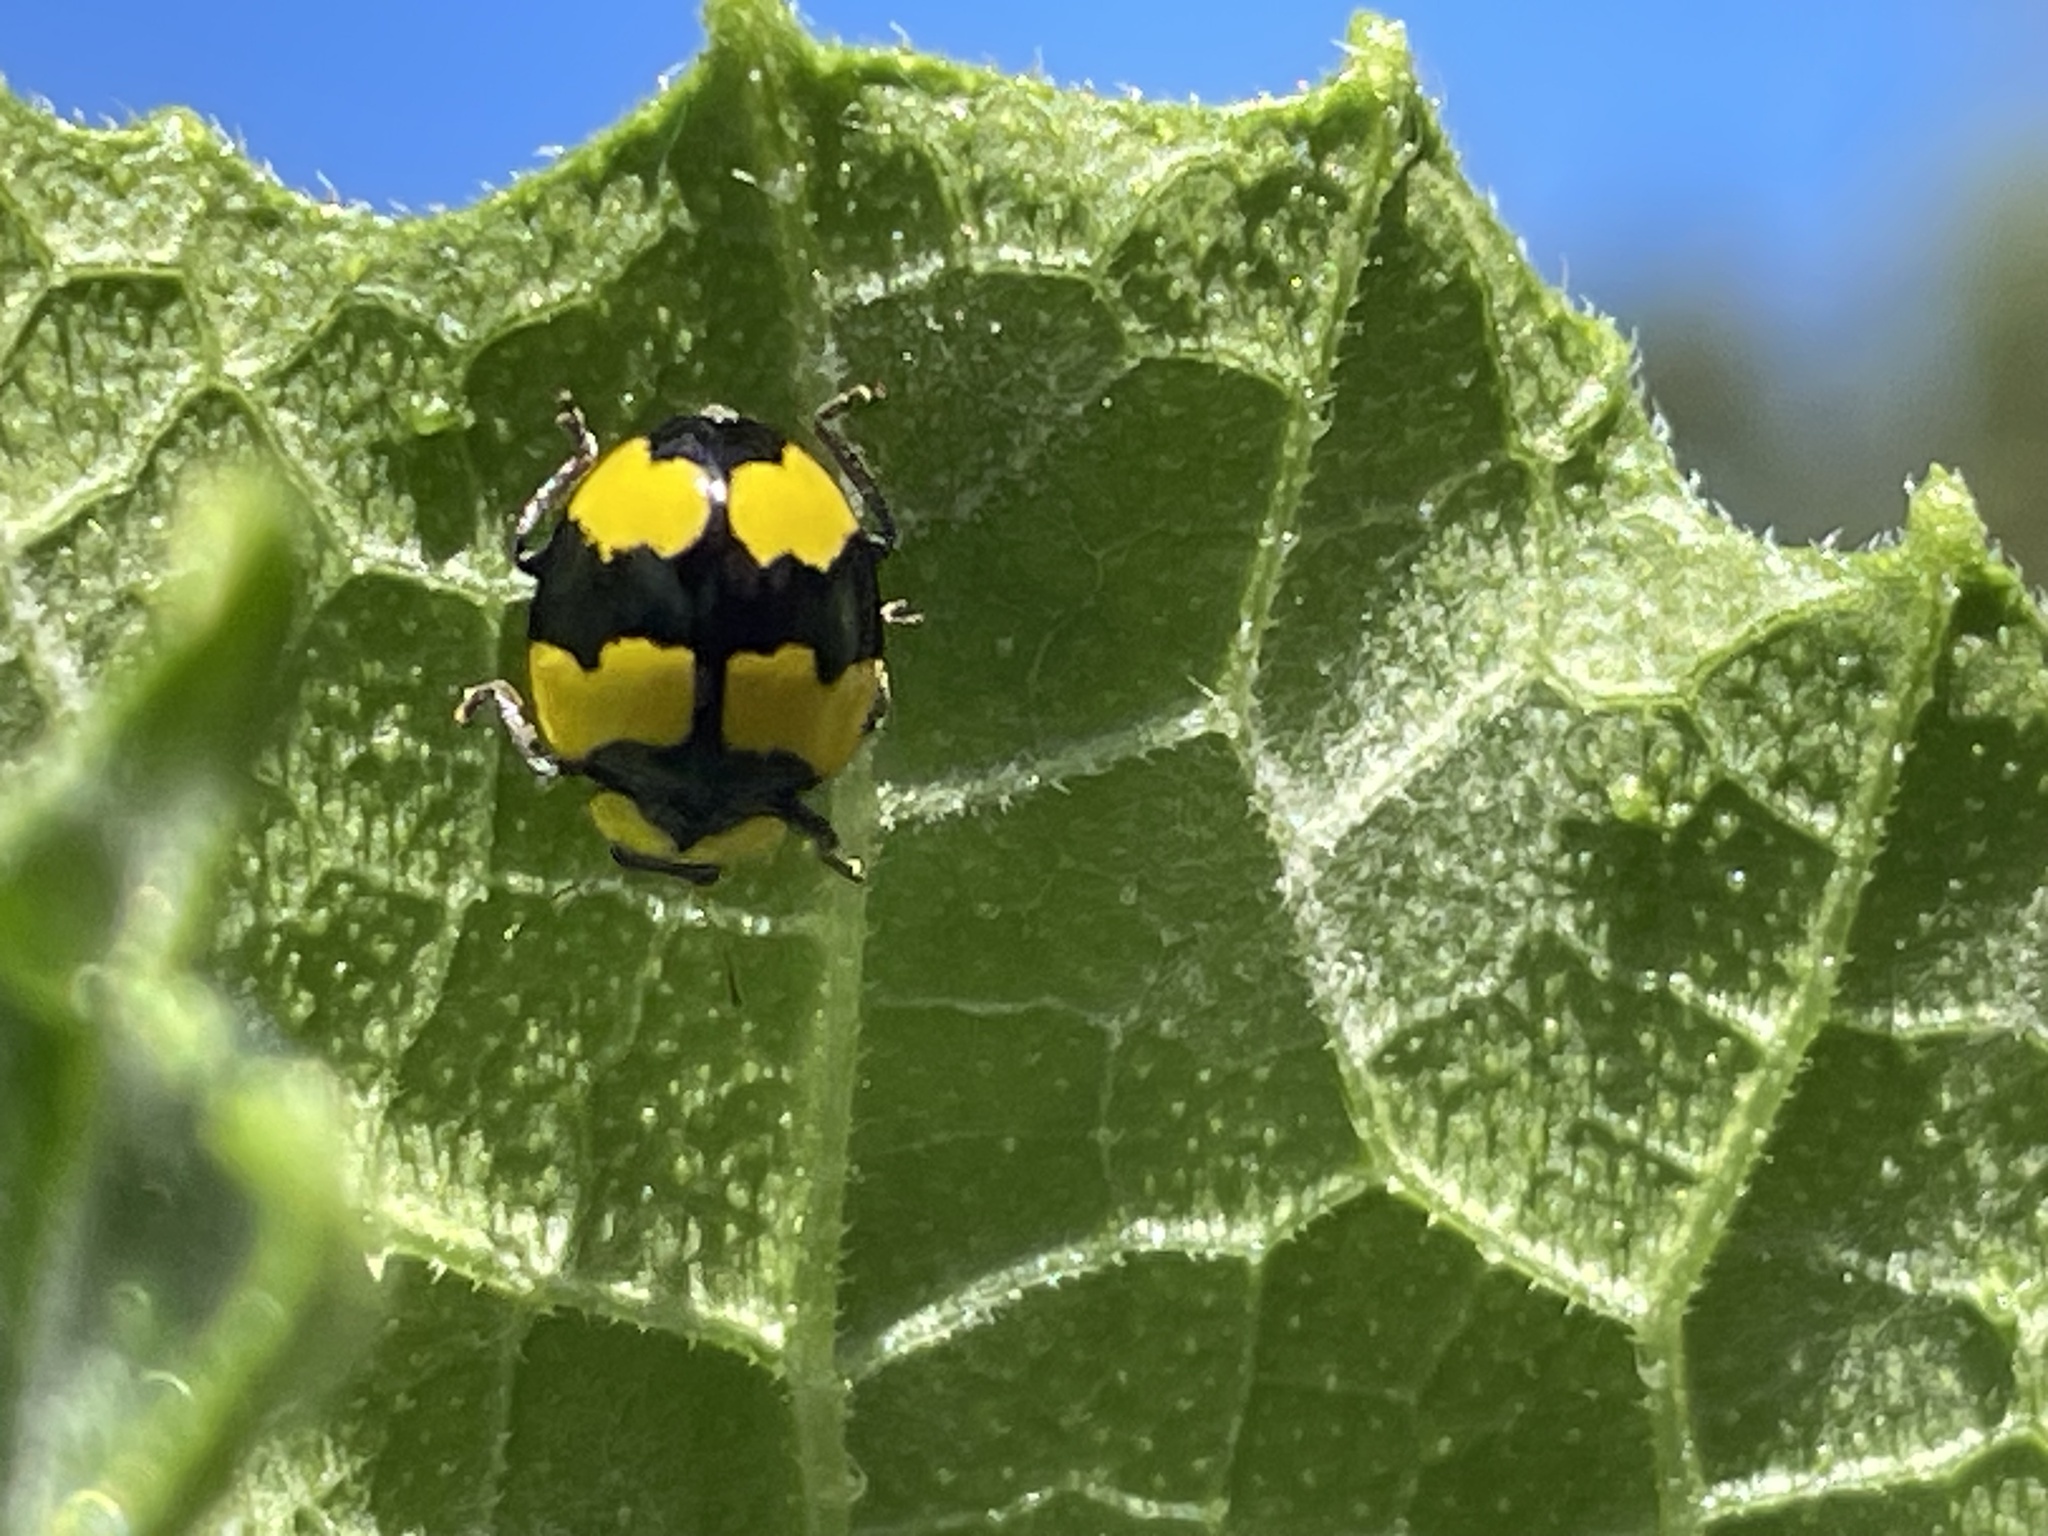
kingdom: Animalia
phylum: Arthropoda
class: Insecta
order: Coleoptera
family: Coccinellidae
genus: Illeis
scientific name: Illeis galbula
